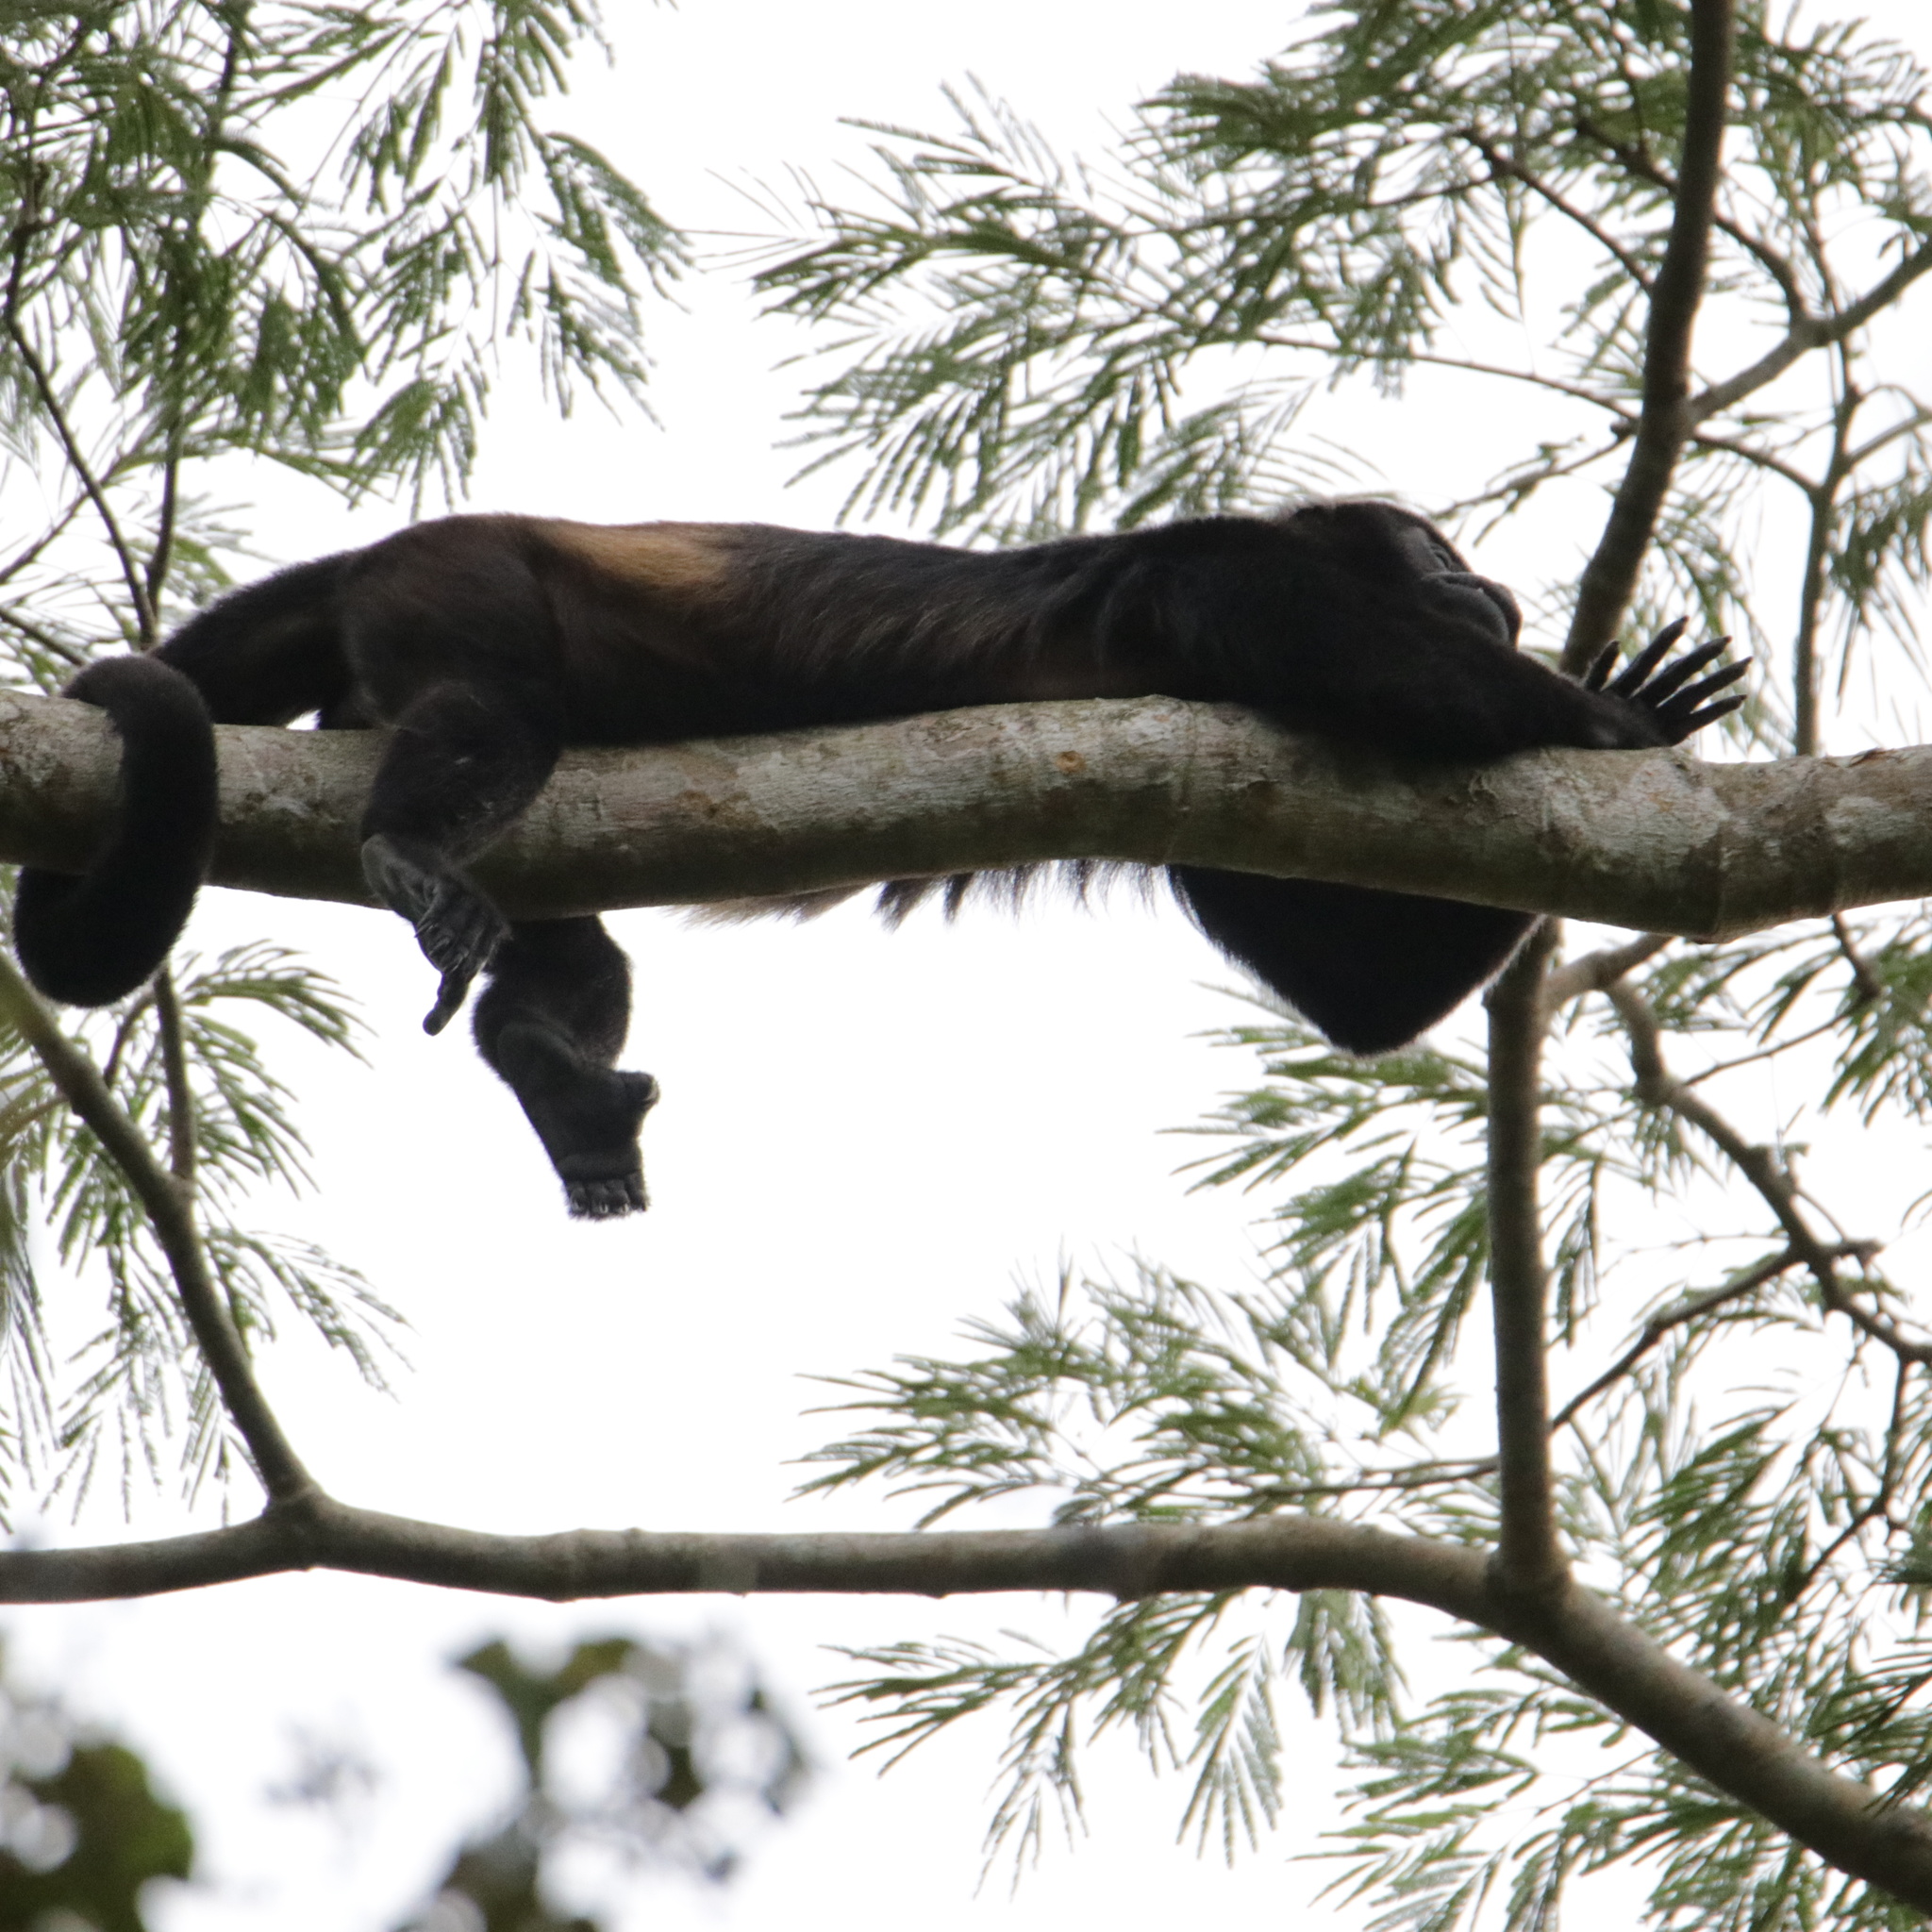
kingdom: Animalia
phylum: Chordata
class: Mammalia
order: Primates
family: Atelidae
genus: Alouatta
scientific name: Alouatta palliata
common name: Mantled howler
